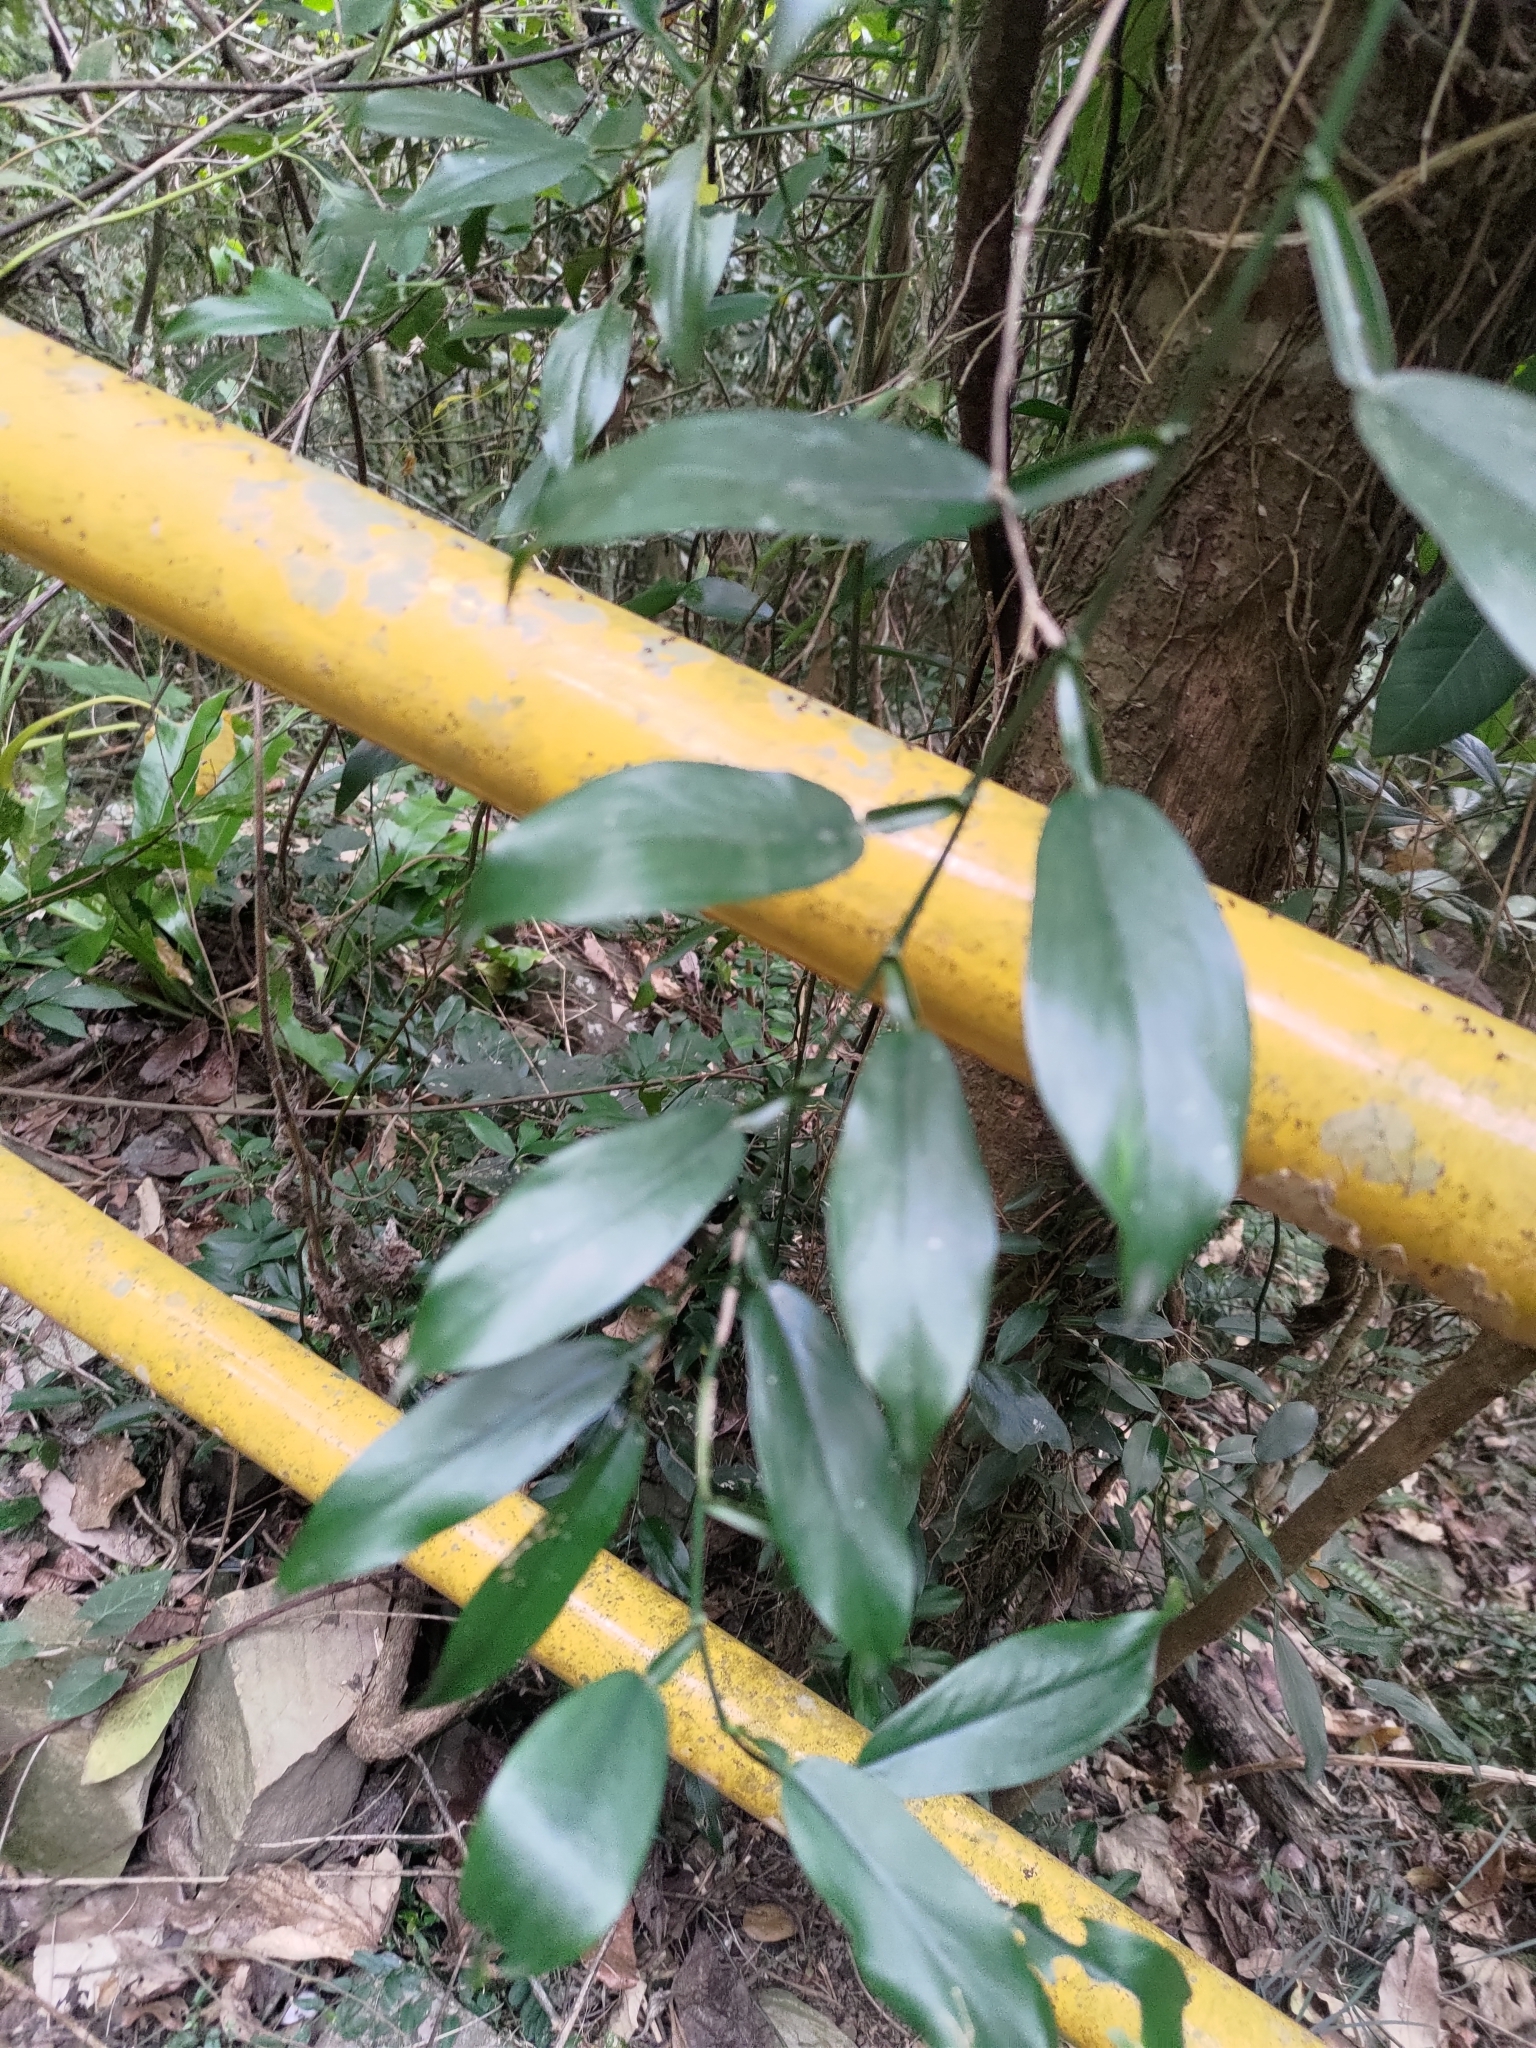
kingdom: Plantae
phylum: Tracheophyta
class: Liliopsida
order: Alismatales
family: Araceae
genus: Pothos
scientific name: Pothos chinensis
